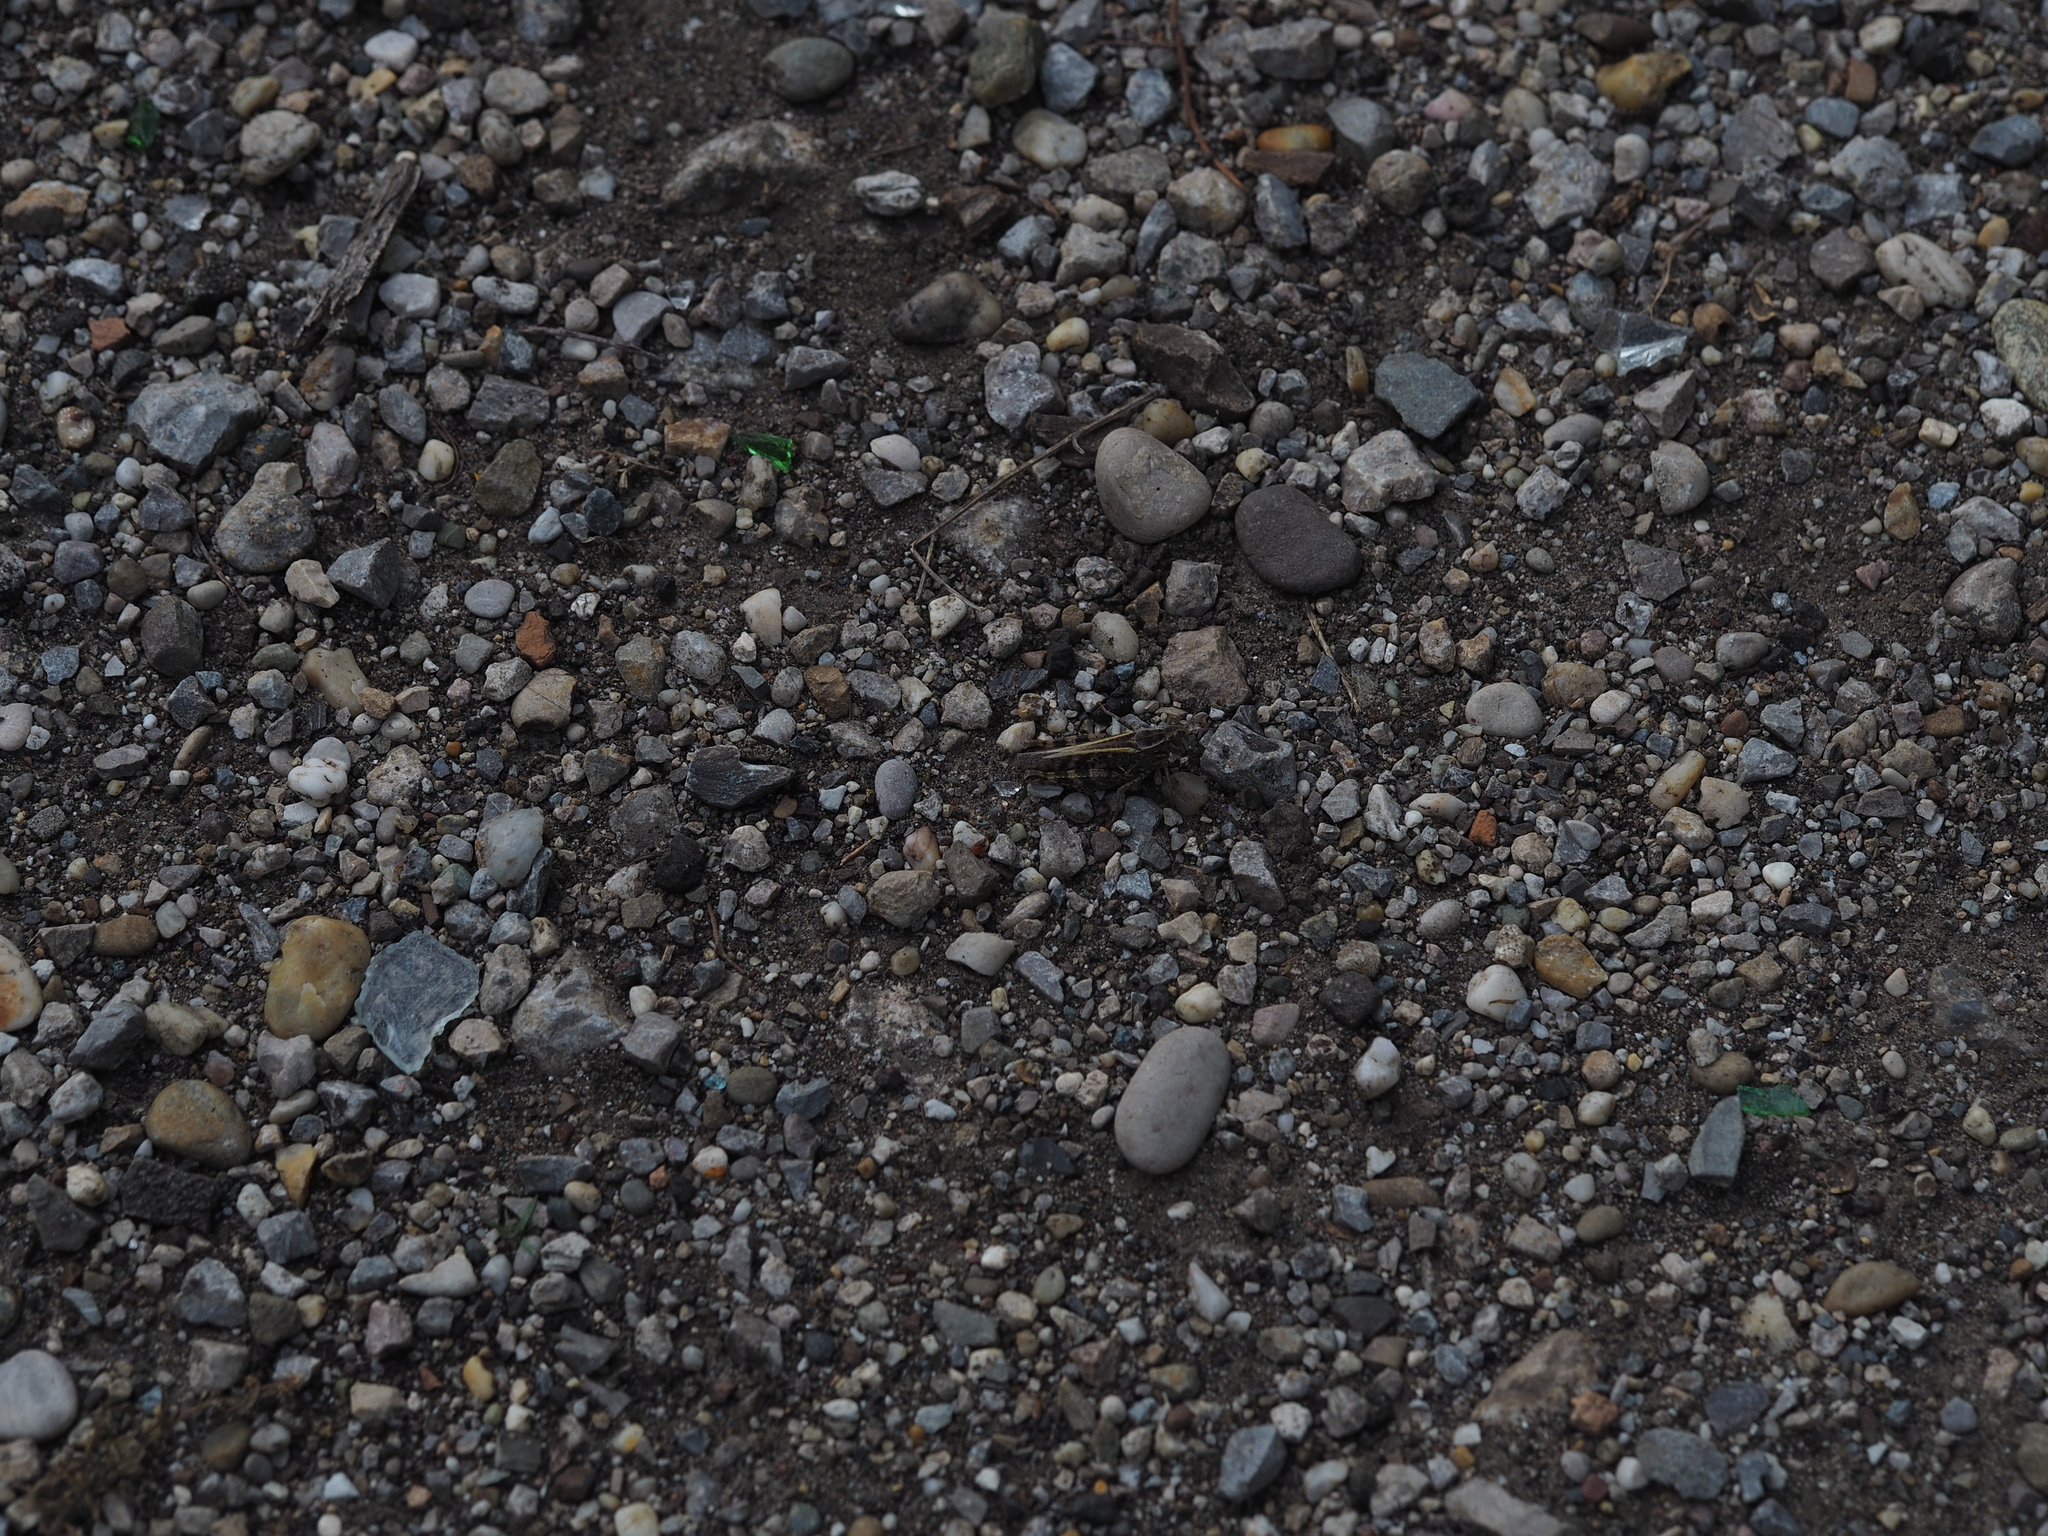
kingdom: Animalia
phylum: Arthropoda
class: Insecta
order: Orthoptera
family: Acrididae
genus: Calliptamus
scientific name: Calliptamus italicus
